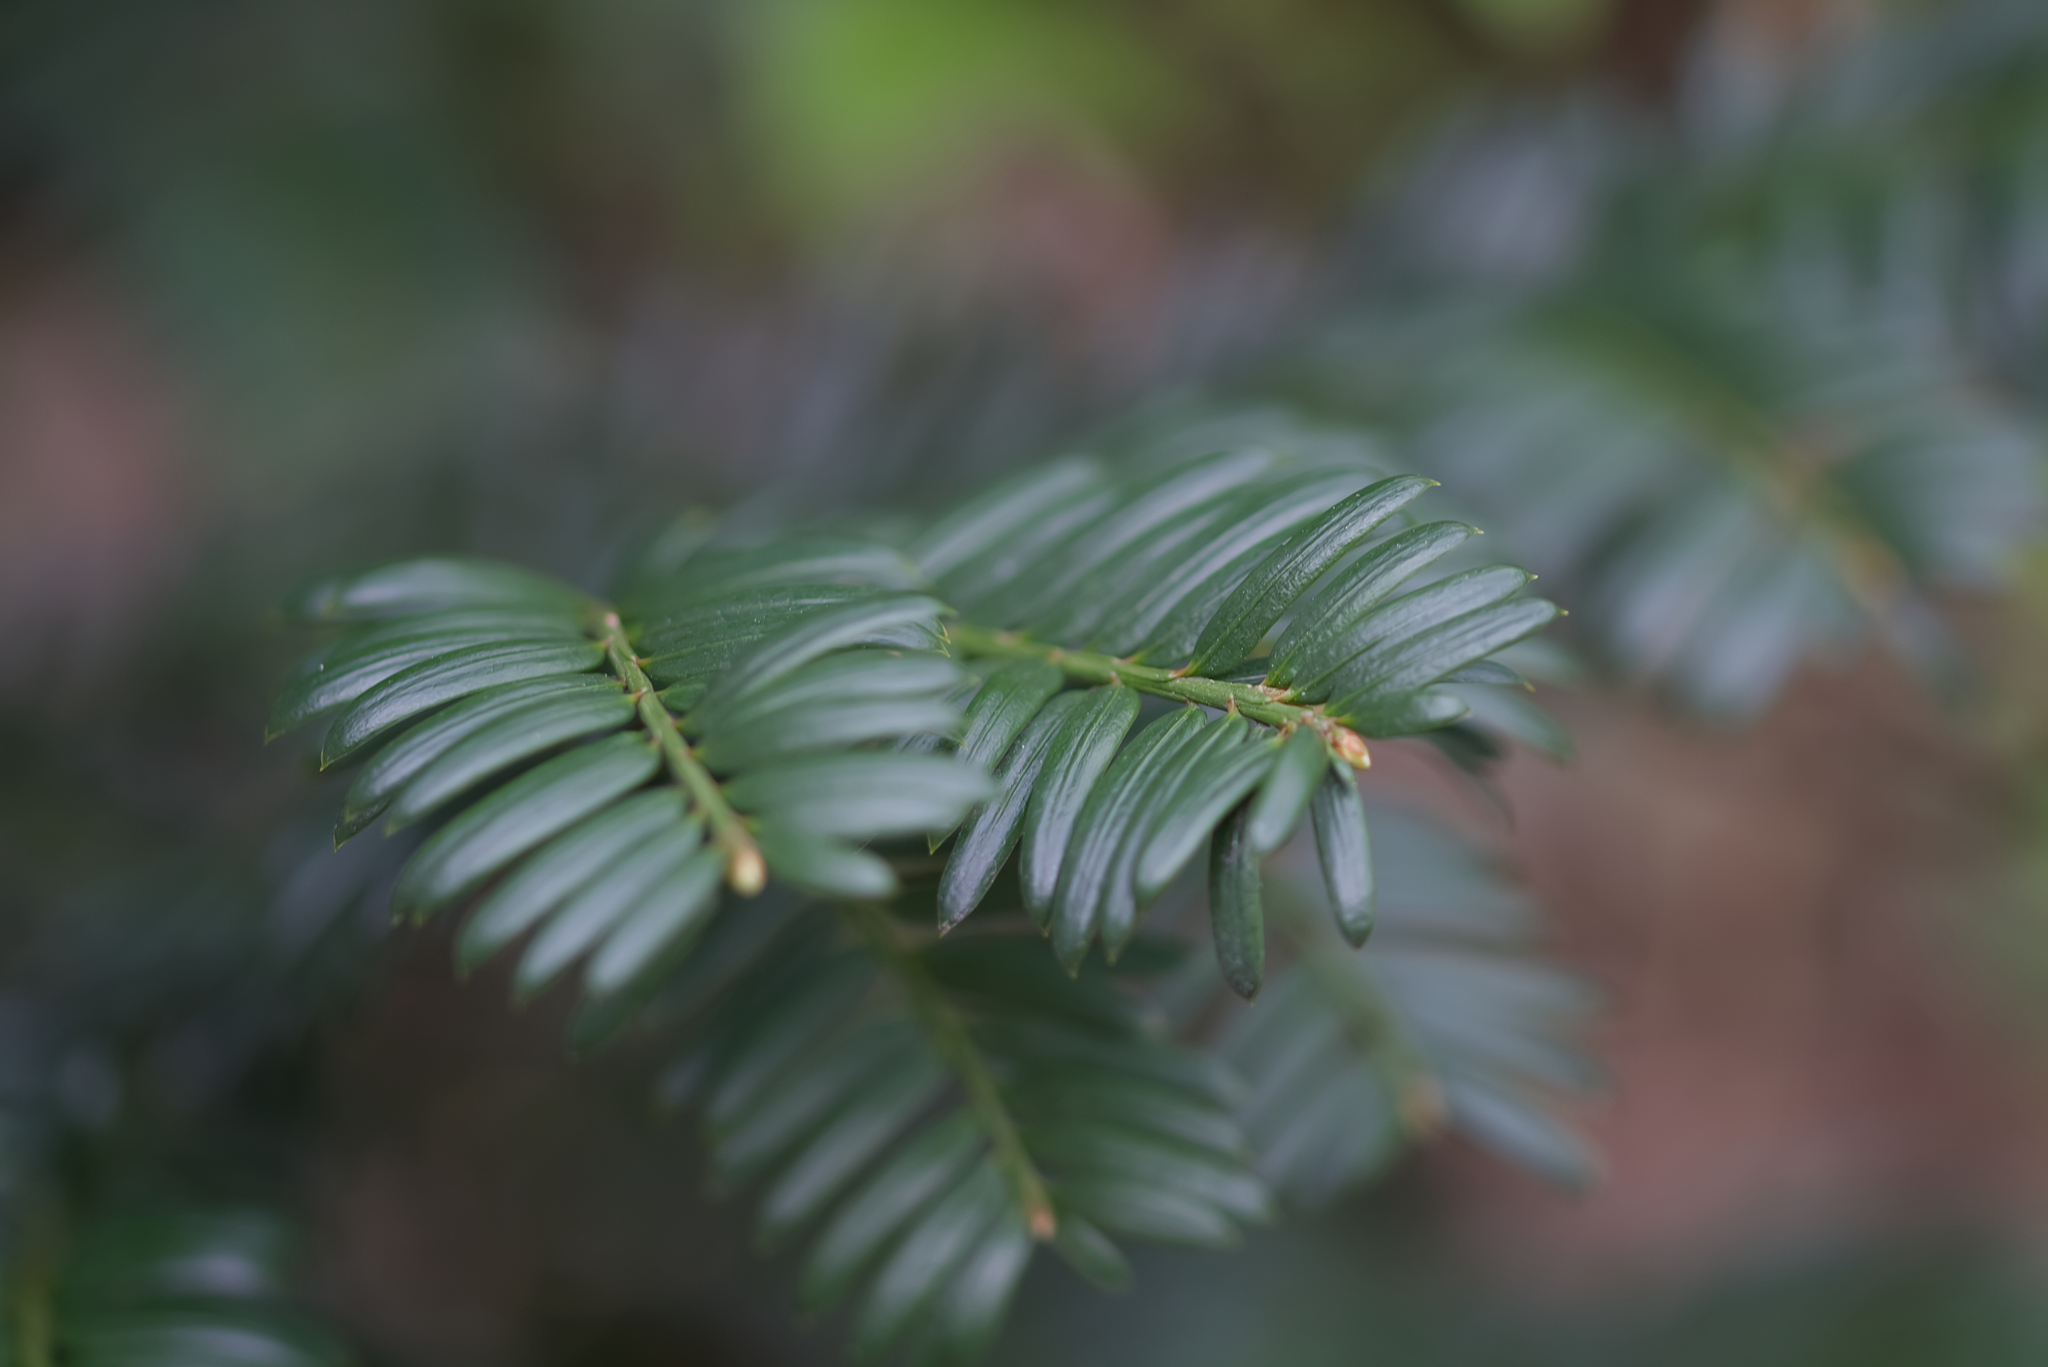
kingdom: Plantae
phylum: Tracheophyta
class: Pinopsida
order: Pinales
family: Taxaceae
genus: Taxus
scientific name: Taxus baccata
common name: Yew
